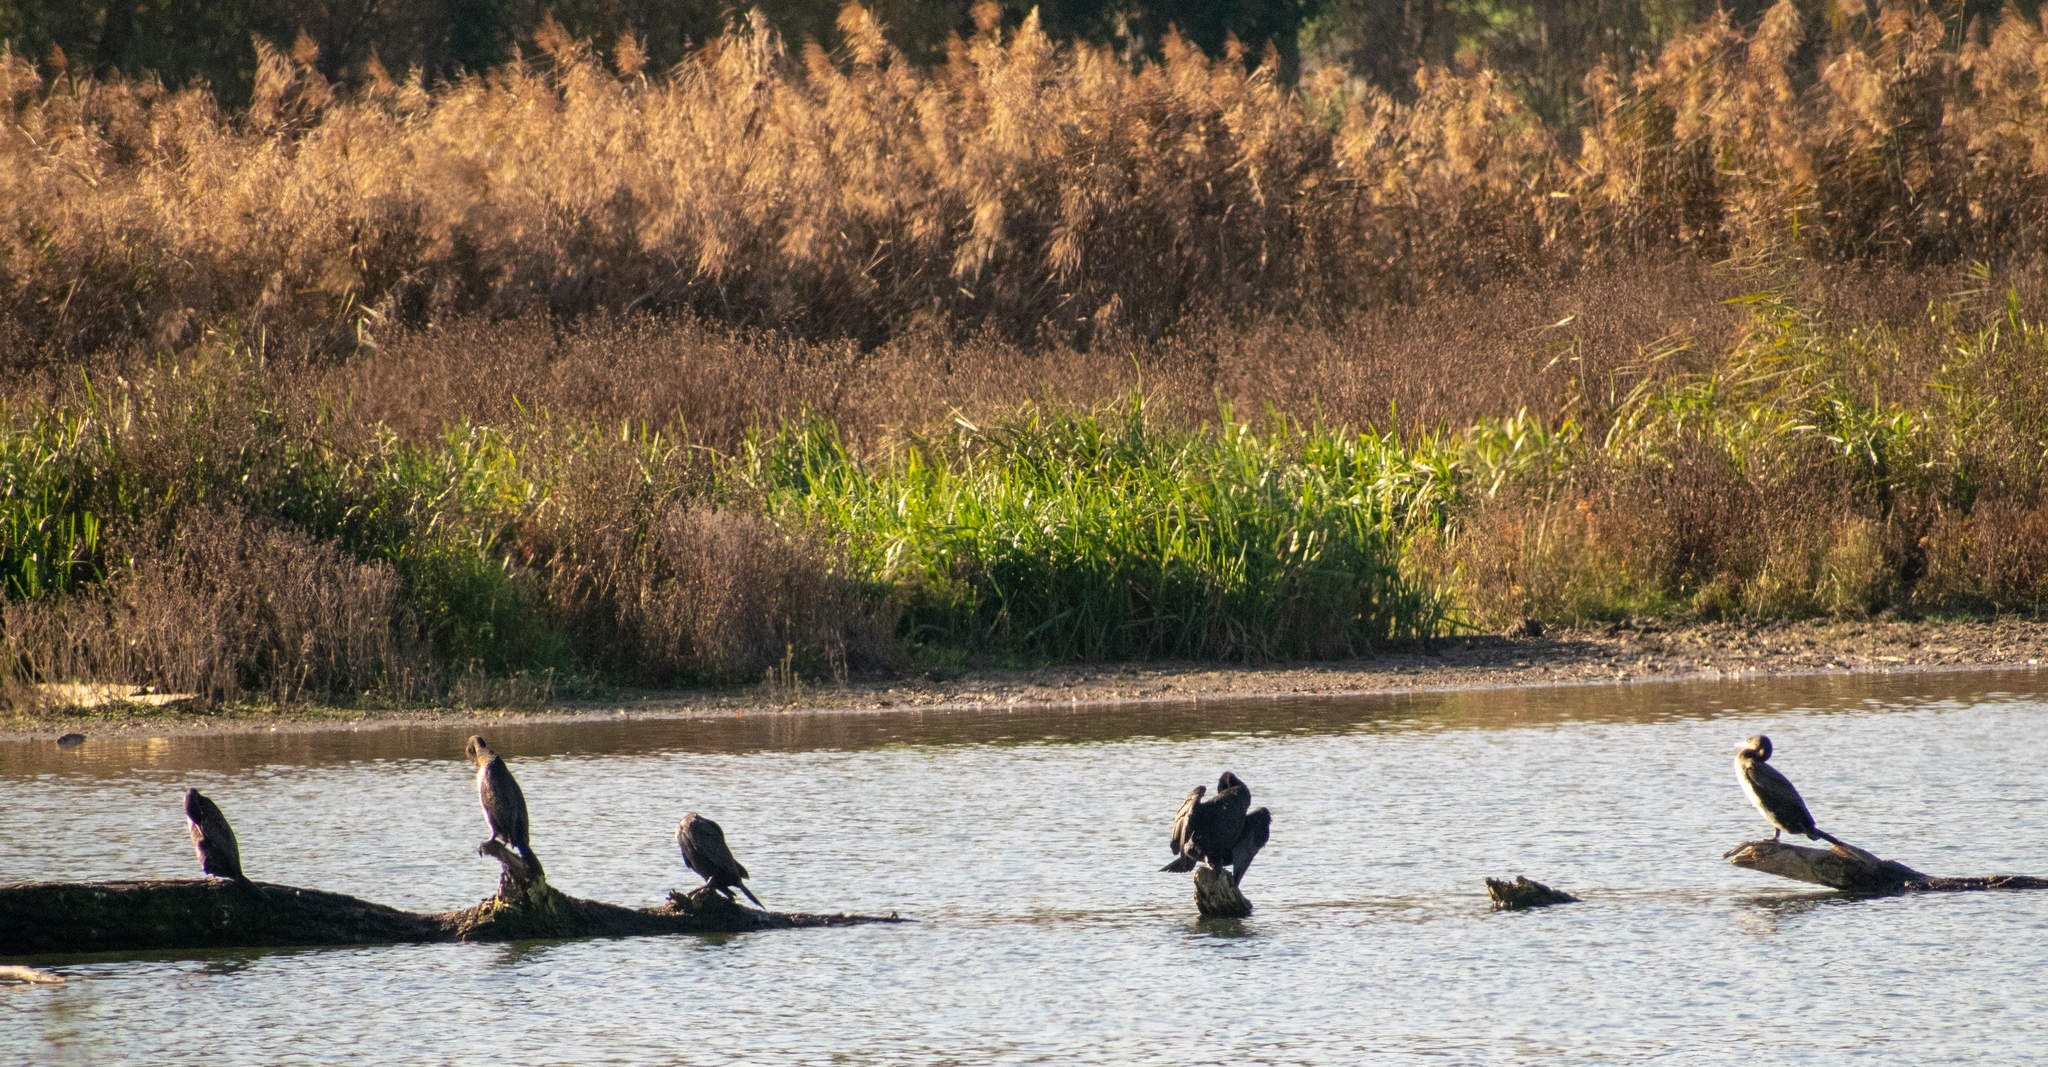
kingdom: Animalia
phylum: Chordata
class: Aves
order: Suliformes
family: Phalacrocoracidae
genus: Phalacrocorax
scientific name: Phalacrocorax carbo
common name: Great cormorant
